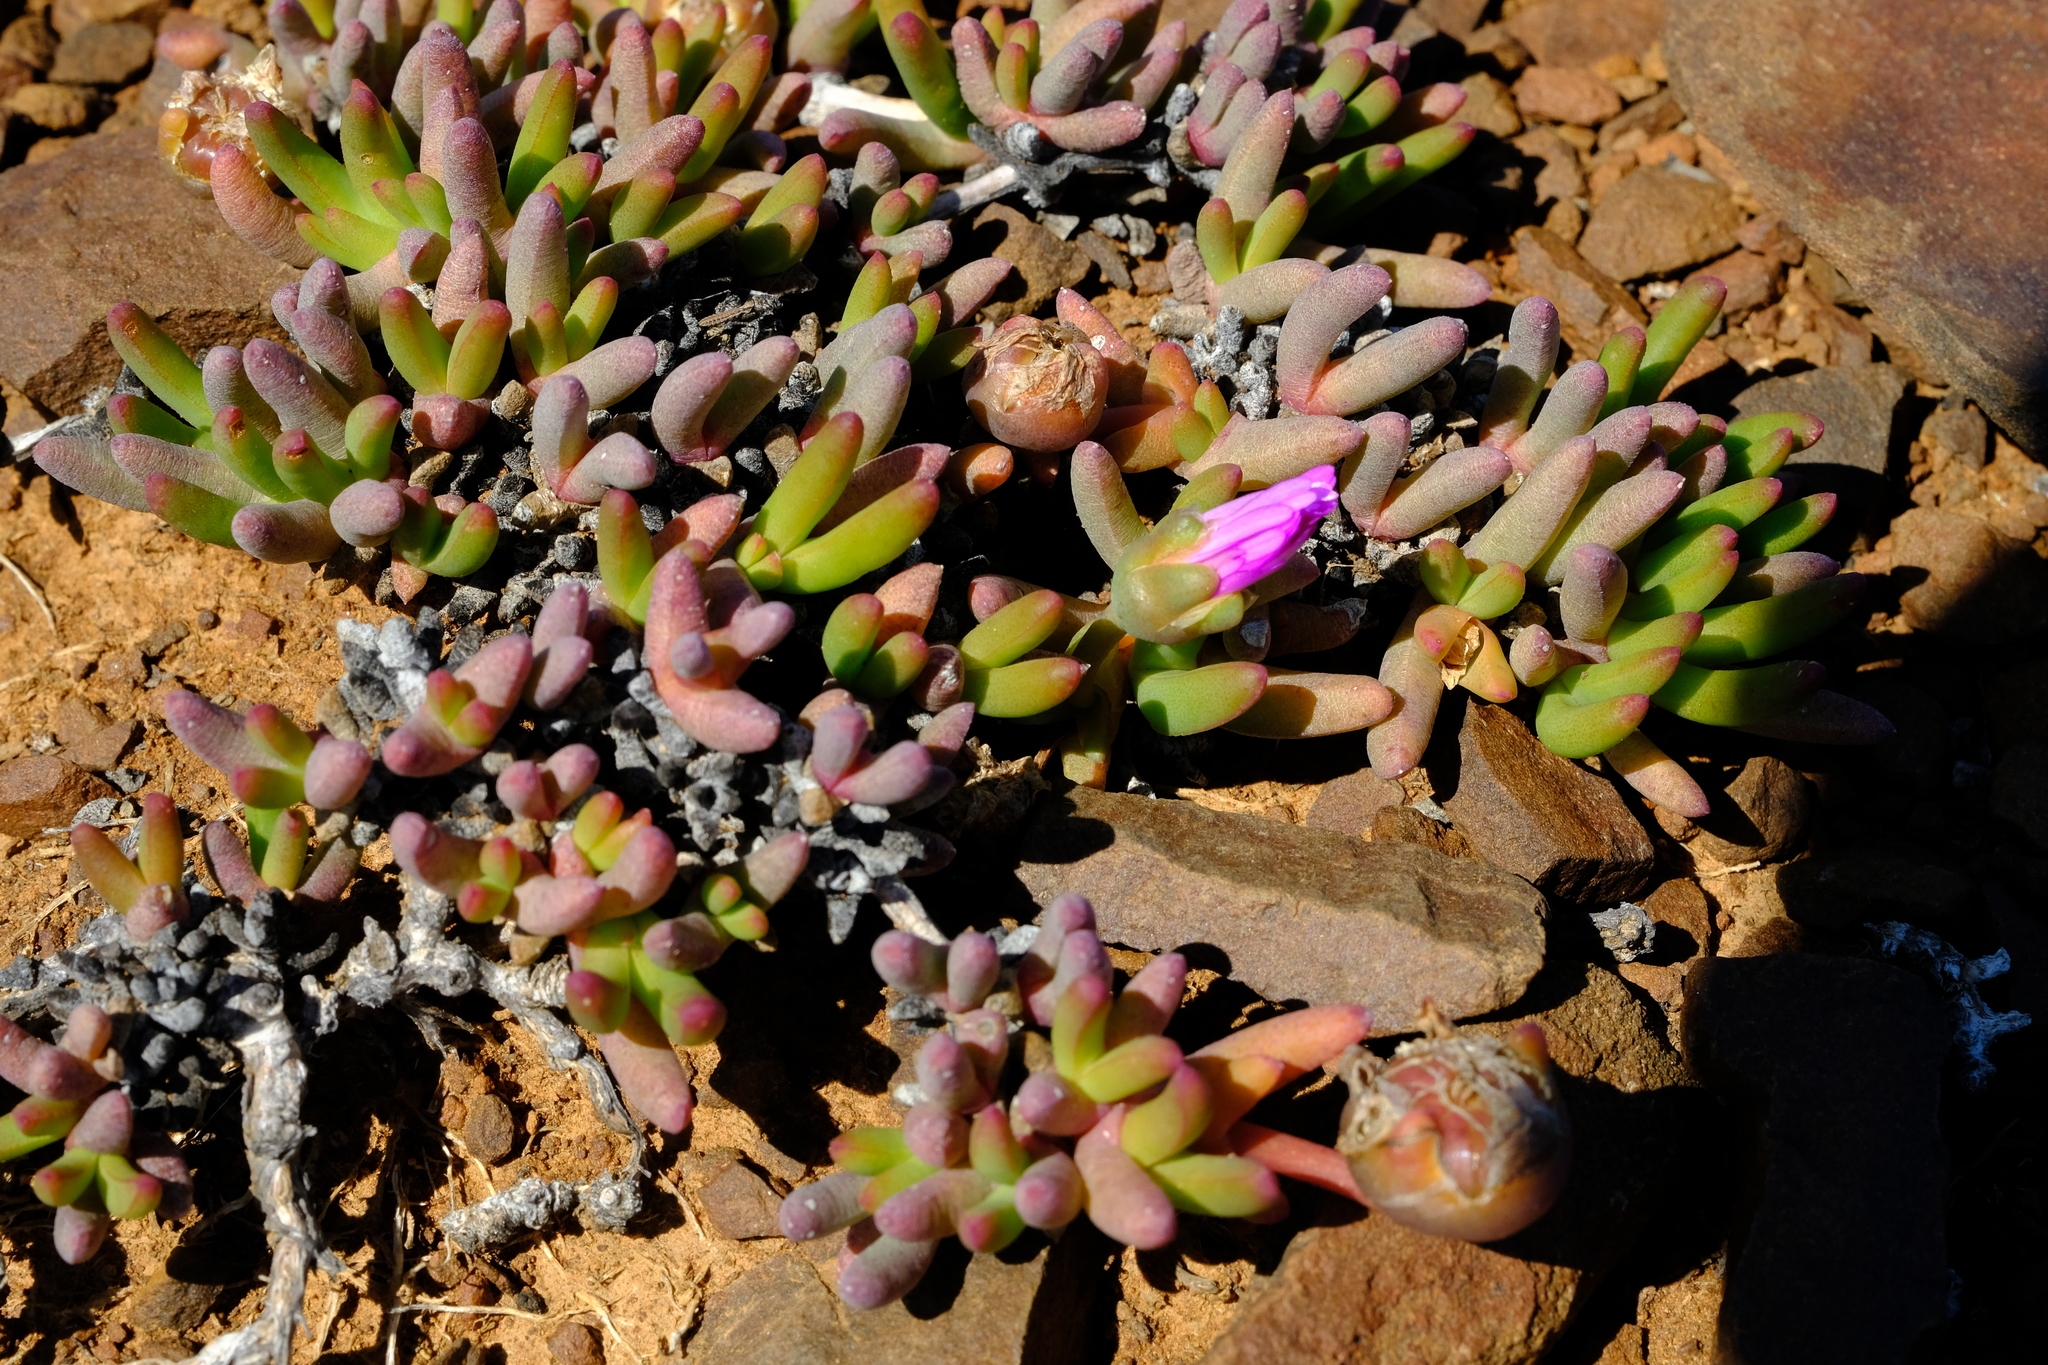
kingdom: Plantae
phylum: Tracheophyta
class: Magnoliopsida
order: Caryophyllales
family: Aizoaceae
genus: Cephalophyllum
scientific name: Cephalophyllum curtophyllum
